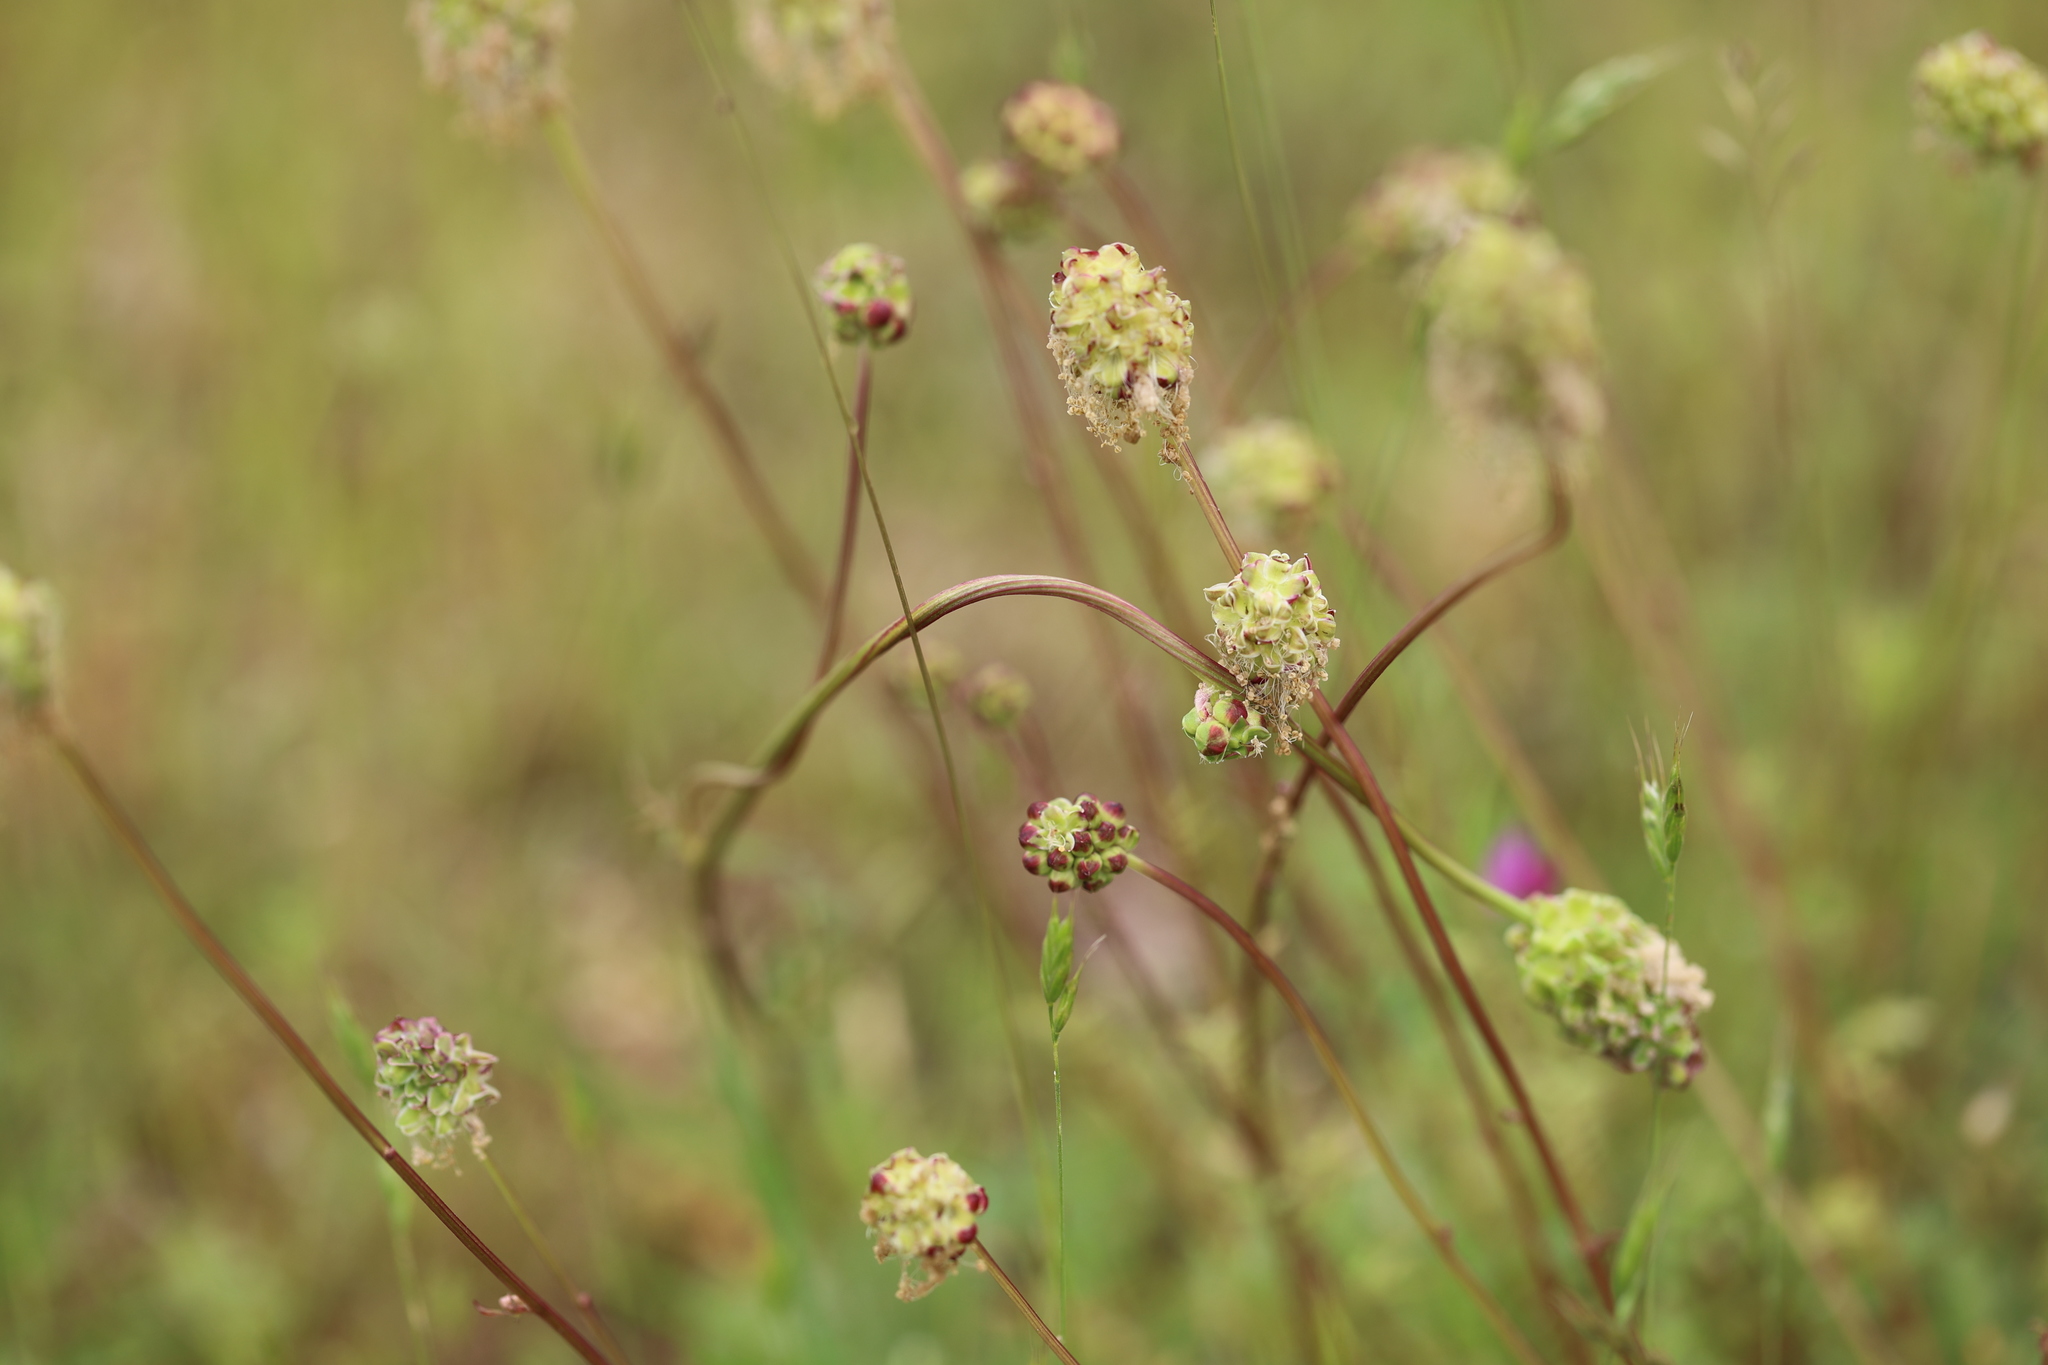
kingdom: Plantae
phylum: Tracheophyta
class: Magnoliopsida
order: Rosales
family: Rosaceae
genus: Poterium
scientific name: Poterium sanguisorba
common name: Salad burnet
